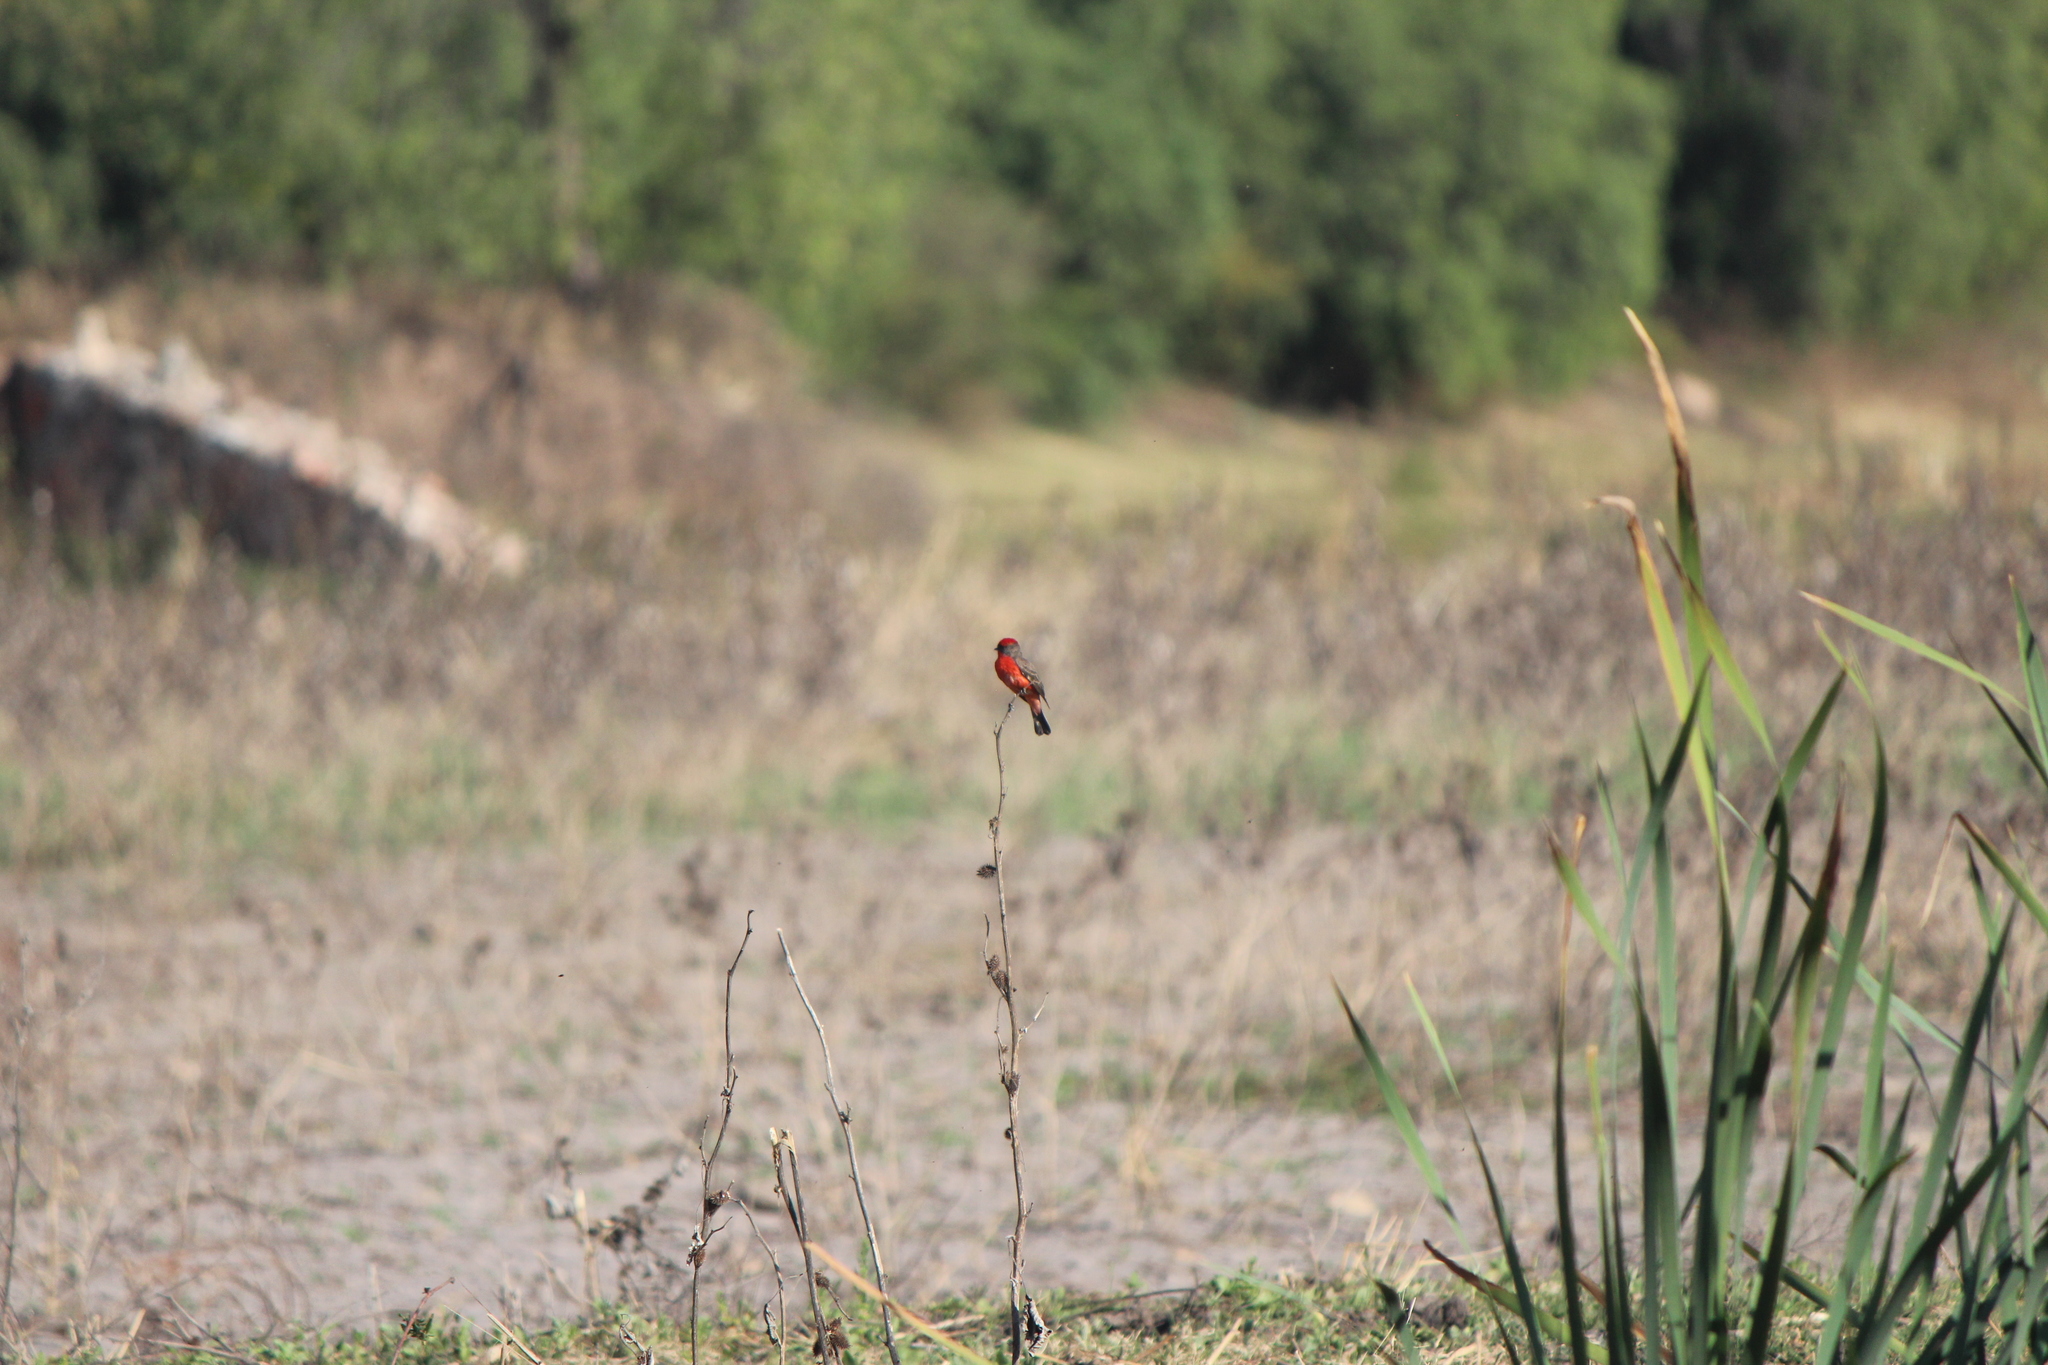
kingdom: Animalia
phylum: Chordata
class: Aves
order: Passeriformes
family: Tyrannidae
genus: Pyrocephalus
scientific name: Pyrocephalus rubinus
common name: Vermilion flycatcher
